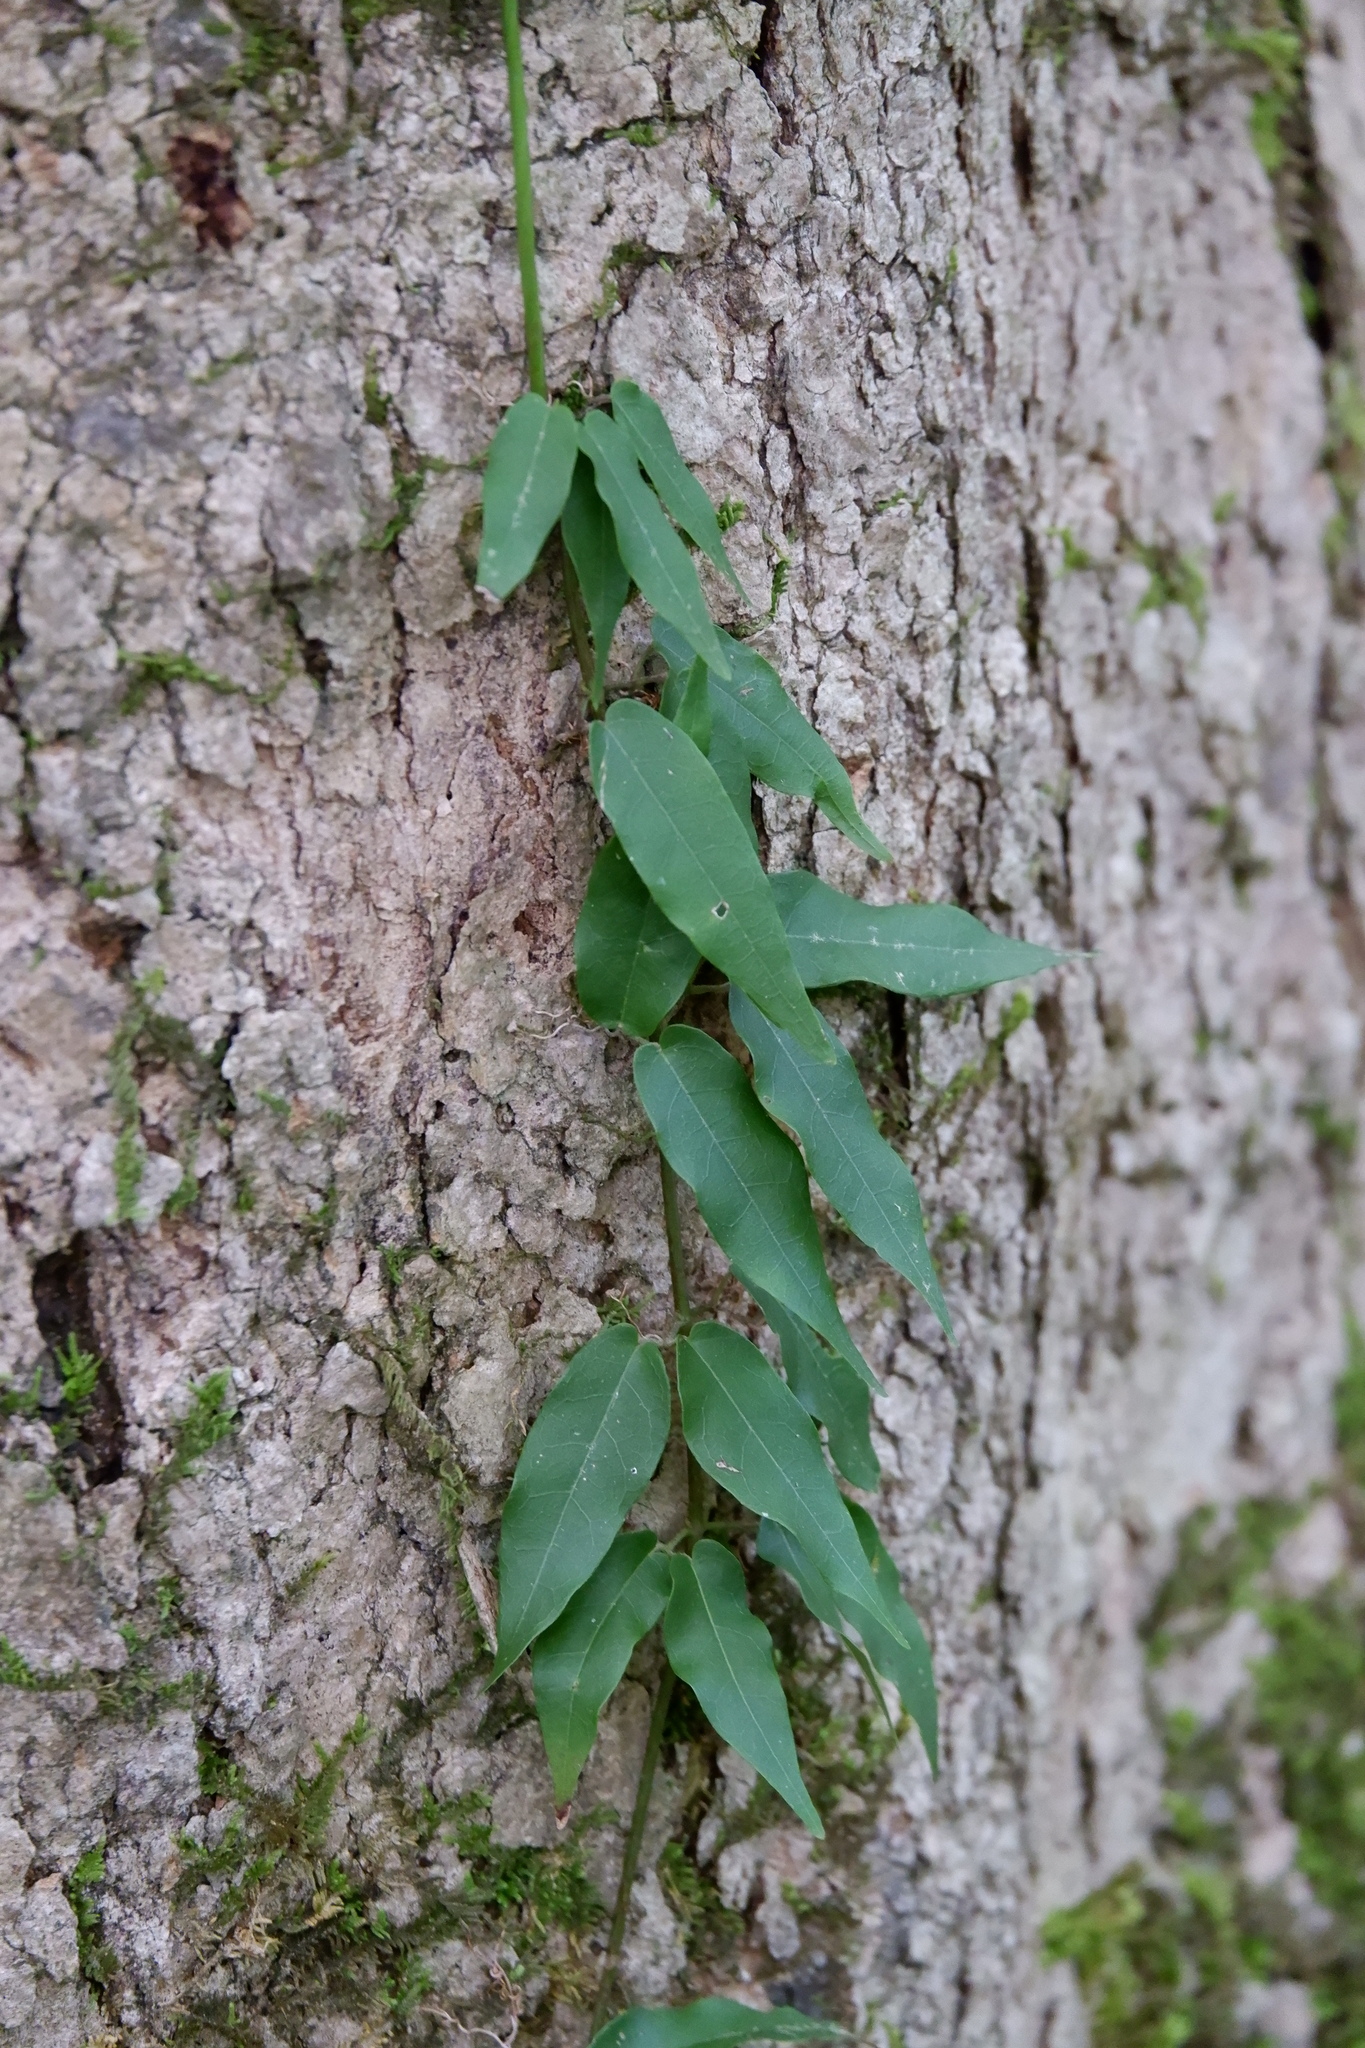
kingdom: Plantae
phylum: Tracheophyta
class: Magnoliopsida
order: Lamiales
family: Bignoniaceae
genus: Bignonia
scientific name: Bignonia capreolata
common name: Crossvine
